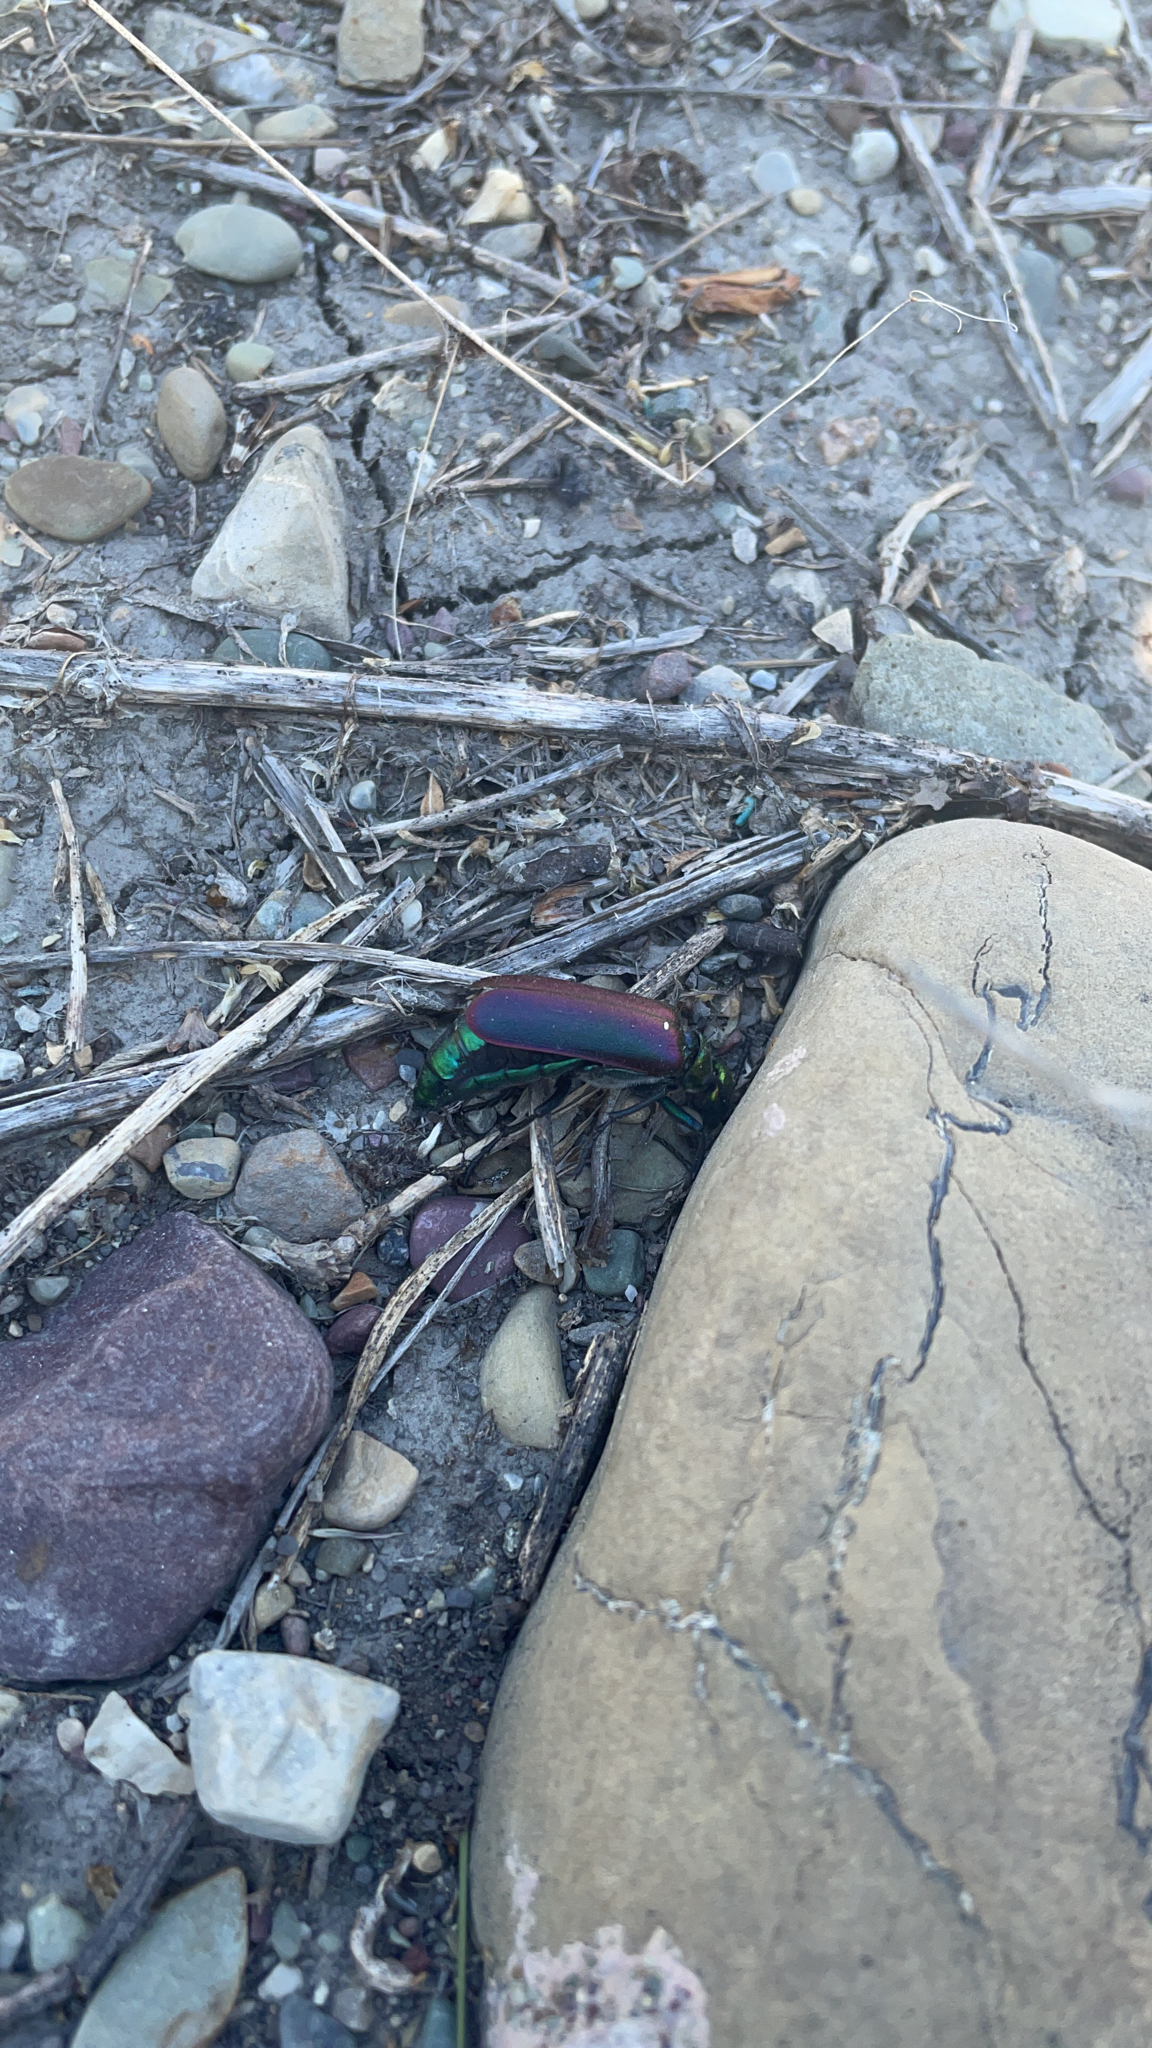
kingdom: Animalia
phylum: Arthropoda
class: Insecta
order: Coleoptera
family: Meloidae
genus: Lytta
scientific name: Lytta nuttallii
